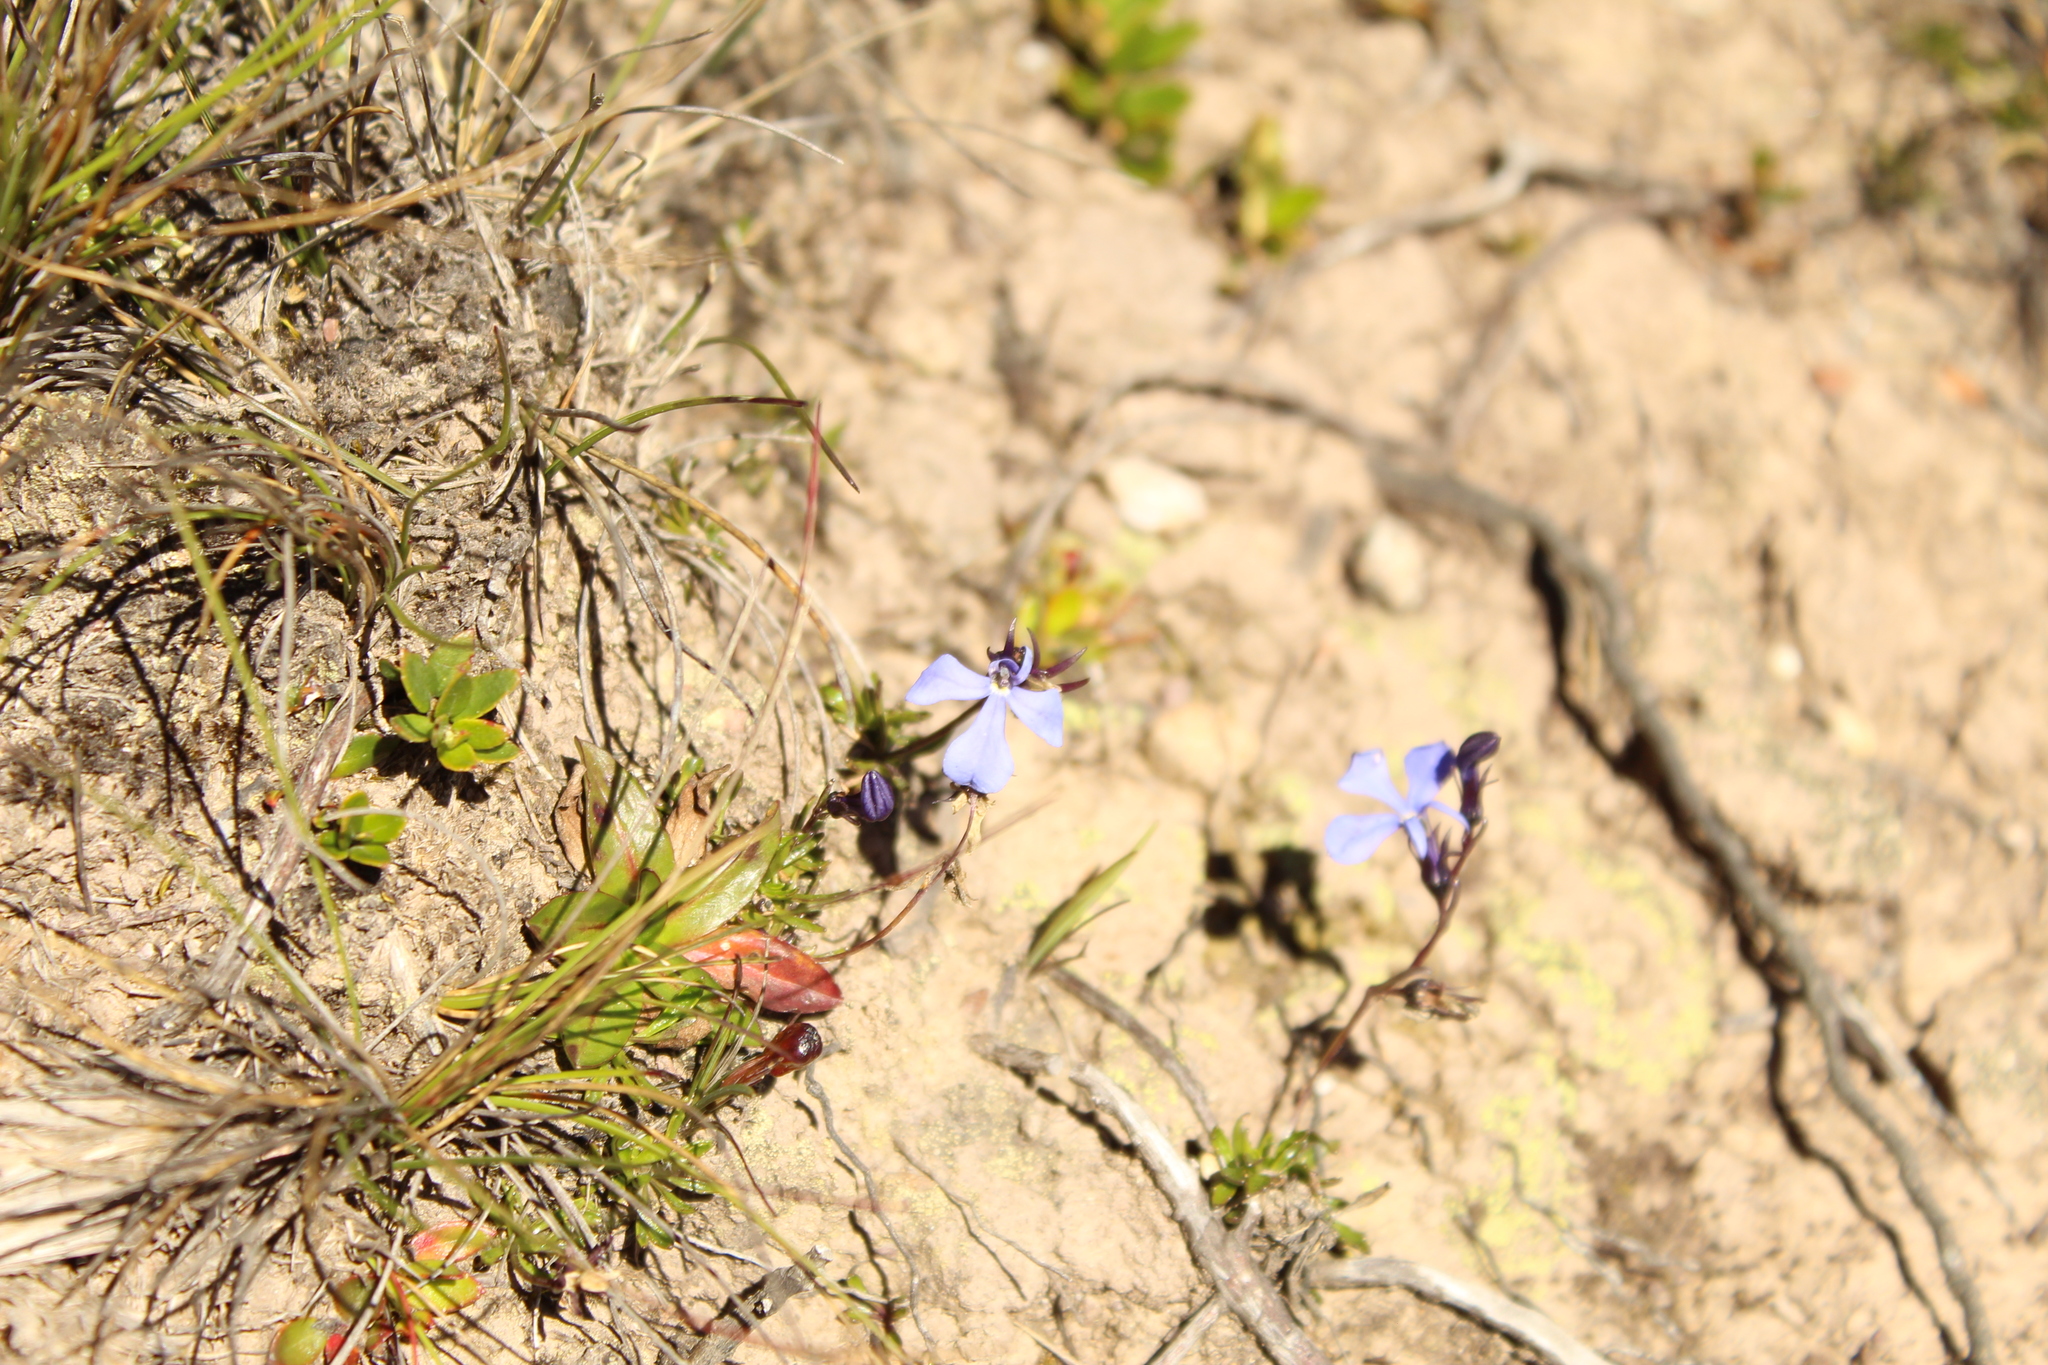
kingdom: Plantae
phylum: Tracheophyta
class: Magnoliopsida
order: Asterales
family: Campanulaceae
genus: Lobelia
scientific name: Lobelia tenera
